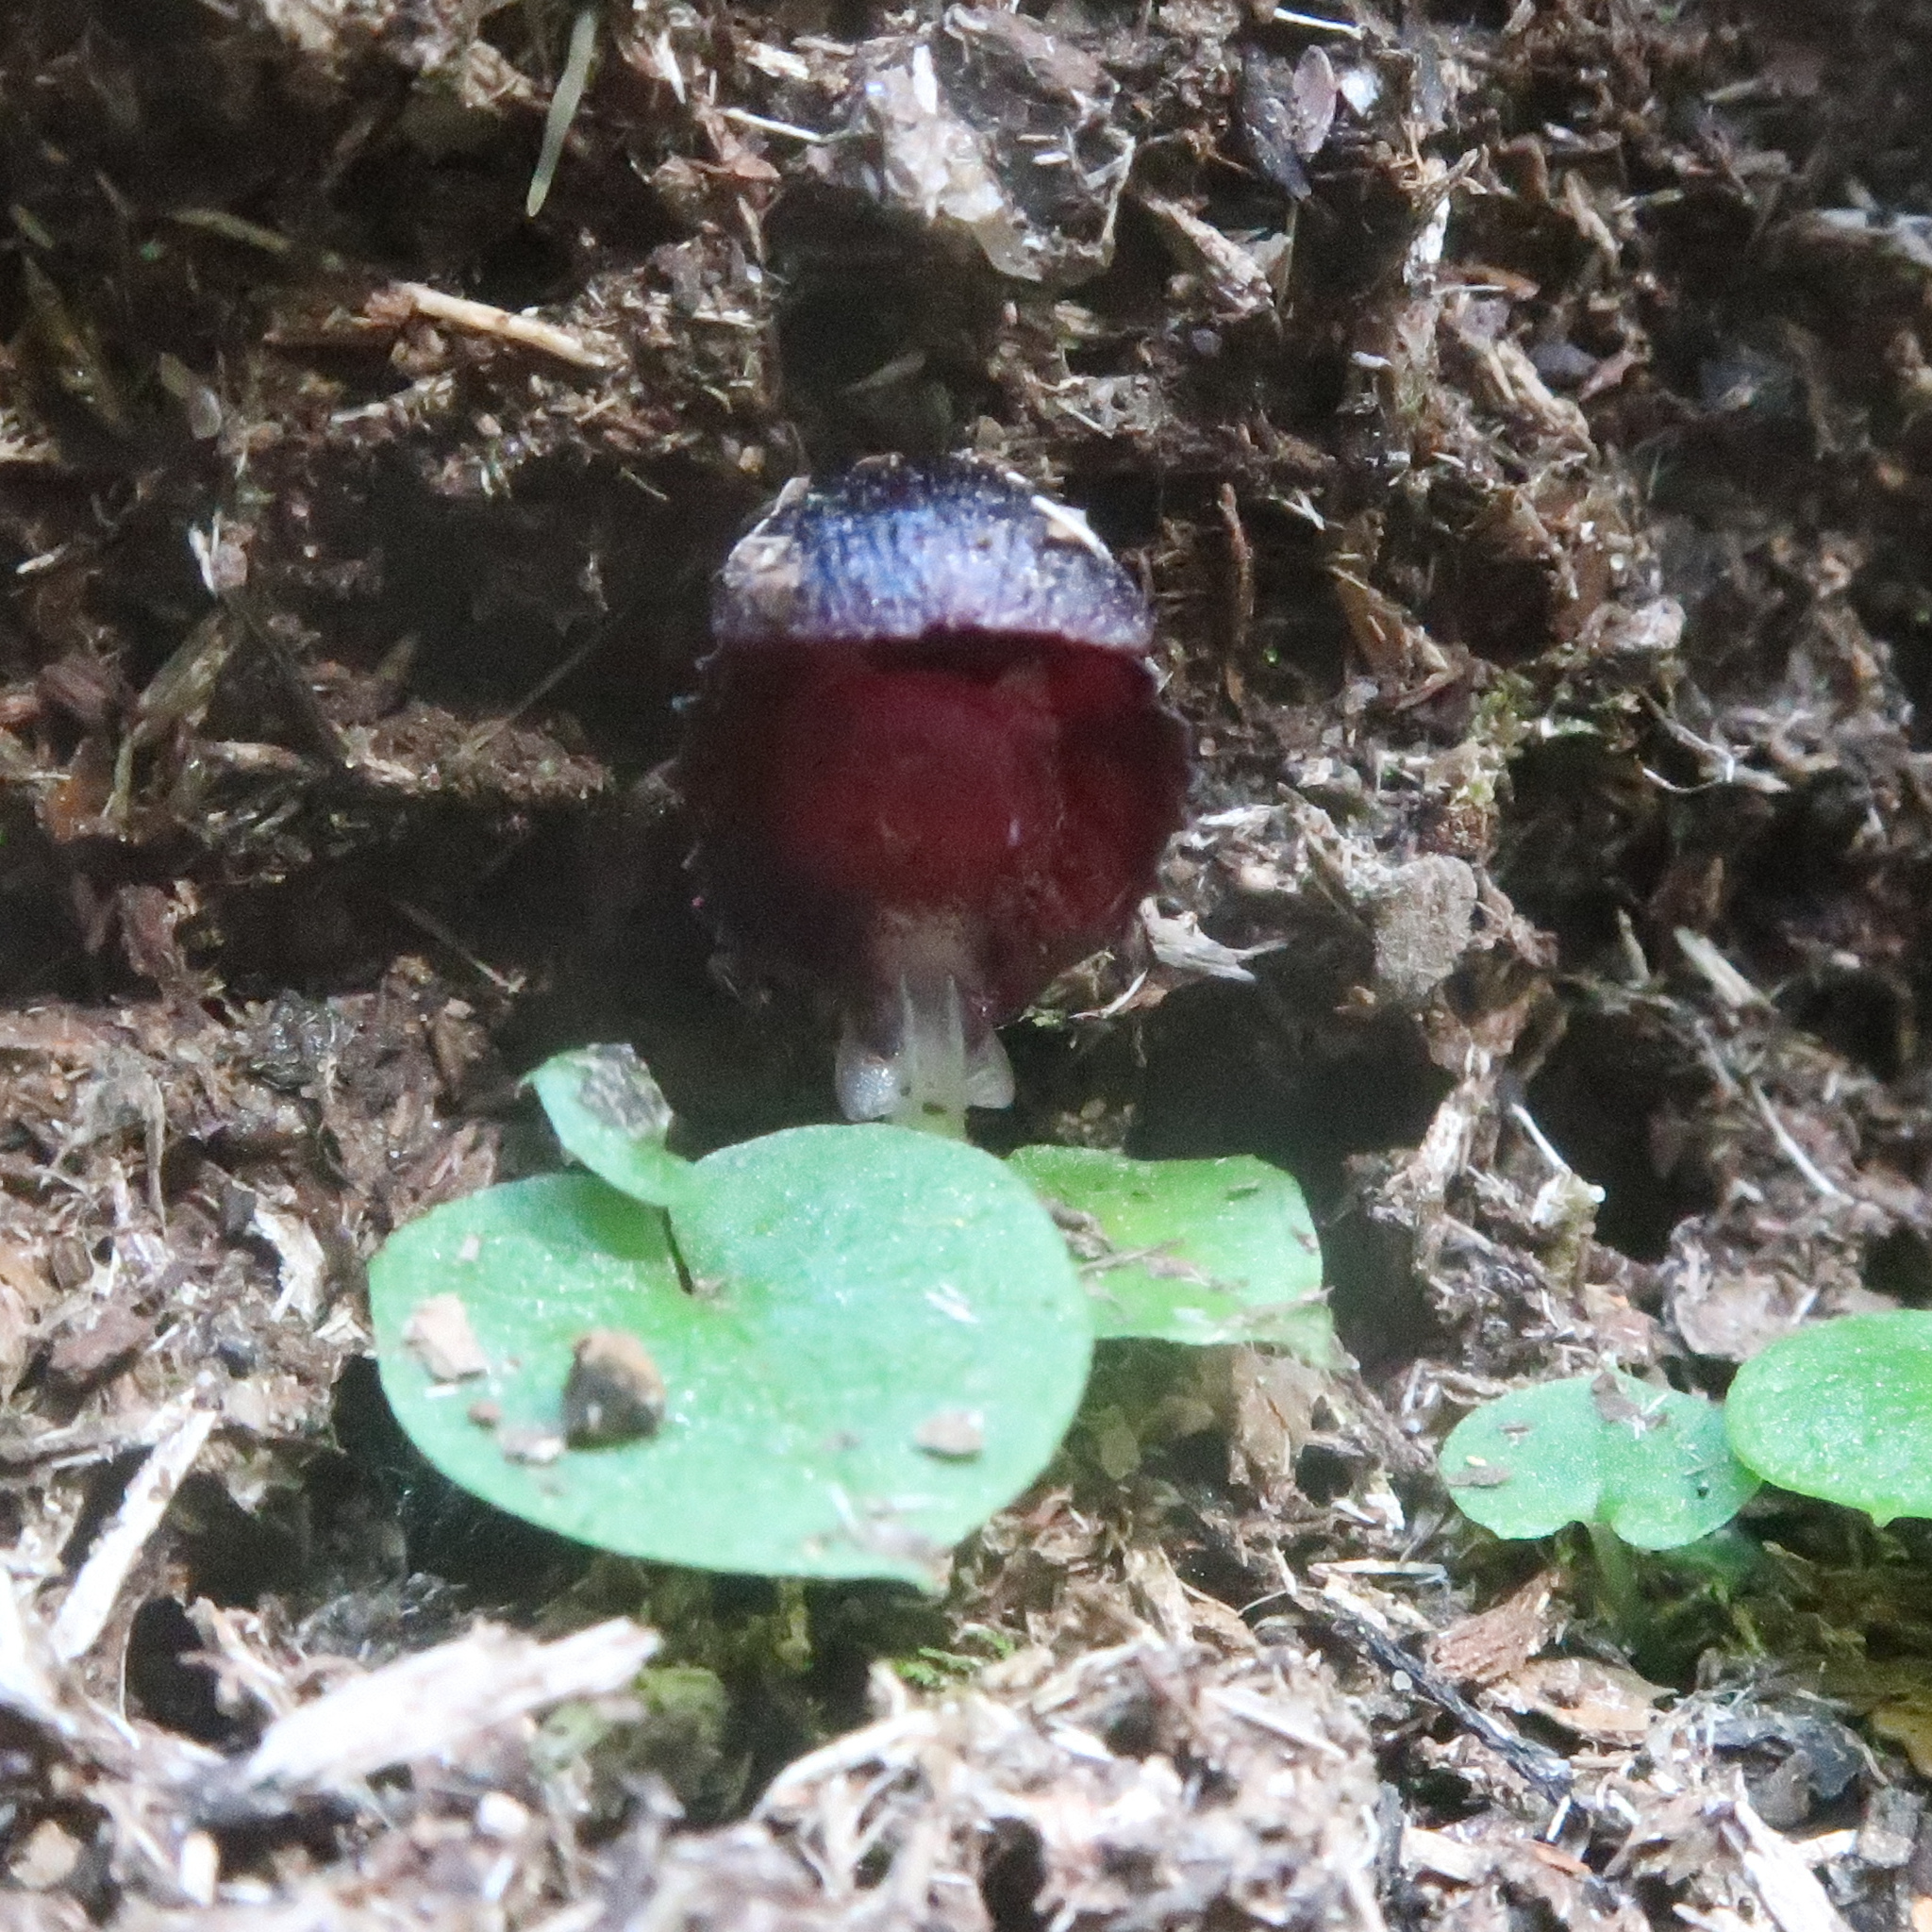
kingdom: Plantae
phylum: Tracheophyta
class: Liliopsida
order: Asparagales
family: Orchidaceae
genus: Corybas
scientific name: Corybas diemenicus
